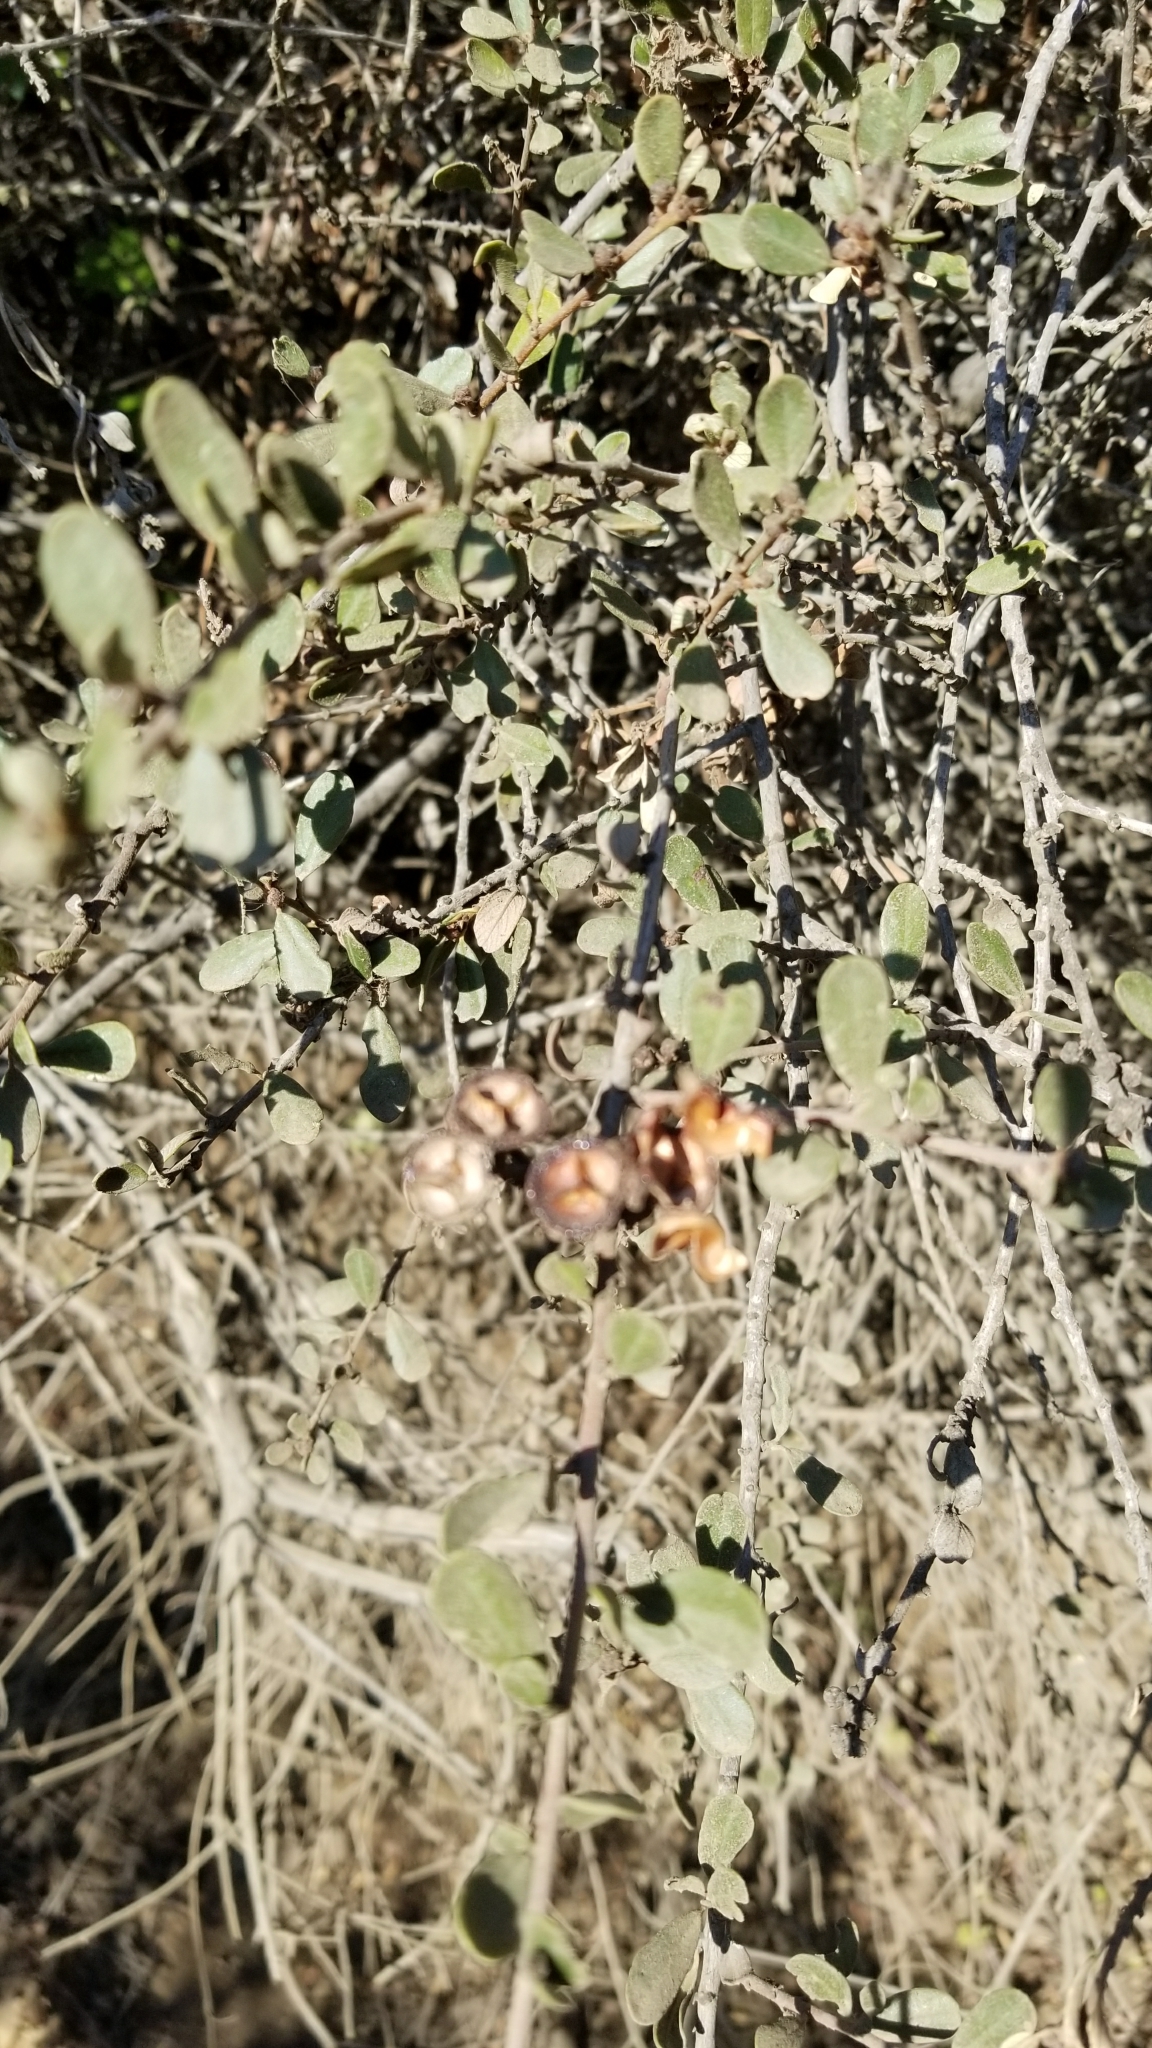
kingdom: Plantae
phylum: Tracheophyta
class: Magnoliopsida
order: Rosales
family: Rhamnaceae
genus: Ceanothus
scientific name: Ceanothus megacarpus
